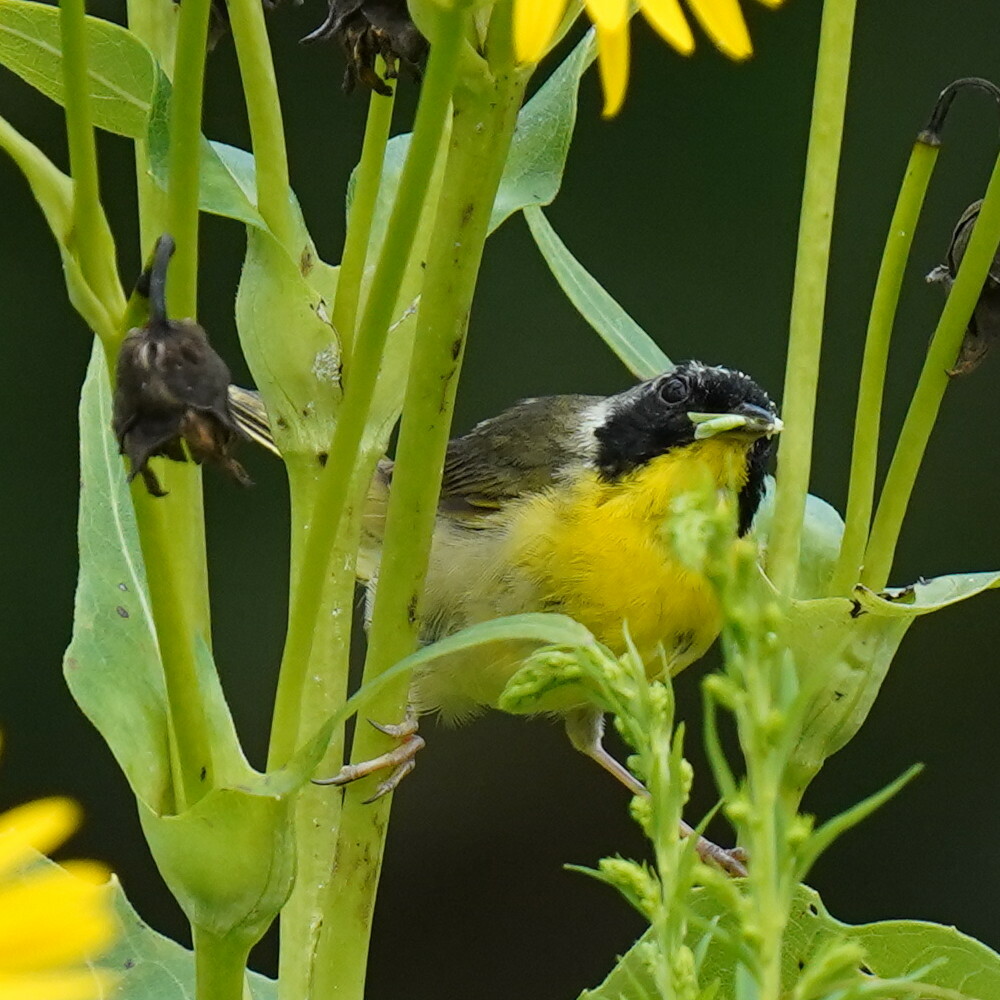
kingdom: Animalia
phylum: Chordata
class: Aves
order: Passeriformes
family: Parulidae
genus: Geothlypis
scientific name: Geothlypis trichas
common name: Common yellowthroat
